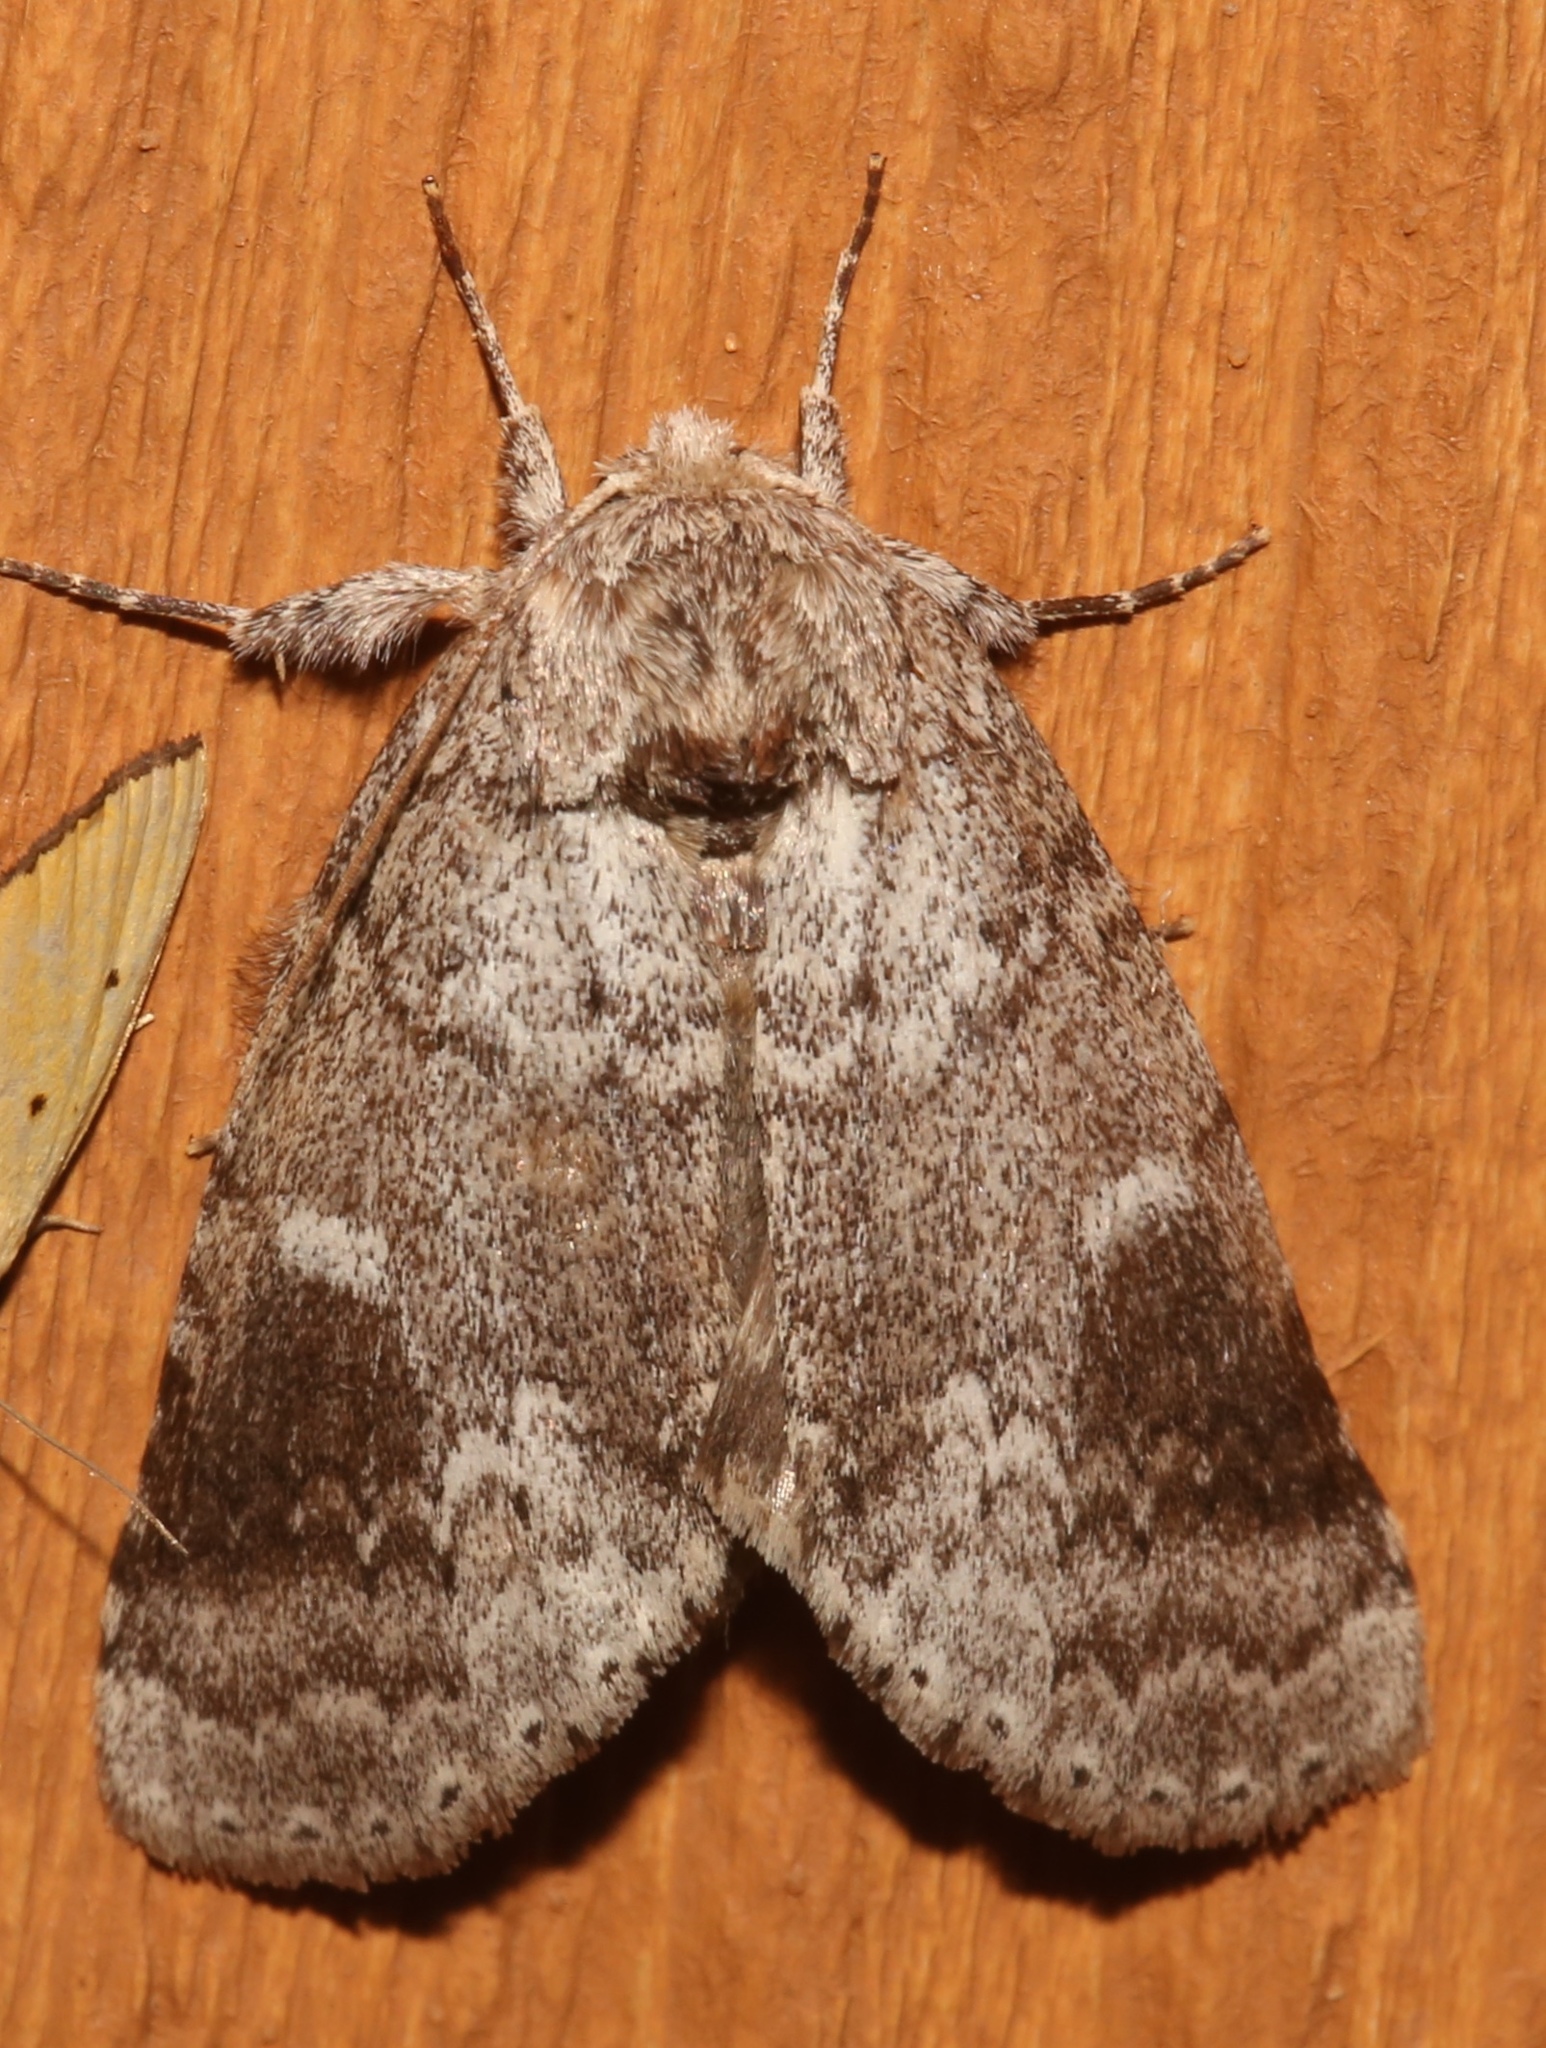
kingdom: Animalia
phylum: Arthropoda
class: Insecta
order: Lepidoptera
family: Notodontidae
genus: Lochmaeus
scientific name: Lochmaeus manteo
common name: Variable oakleaf caterpillar moth
